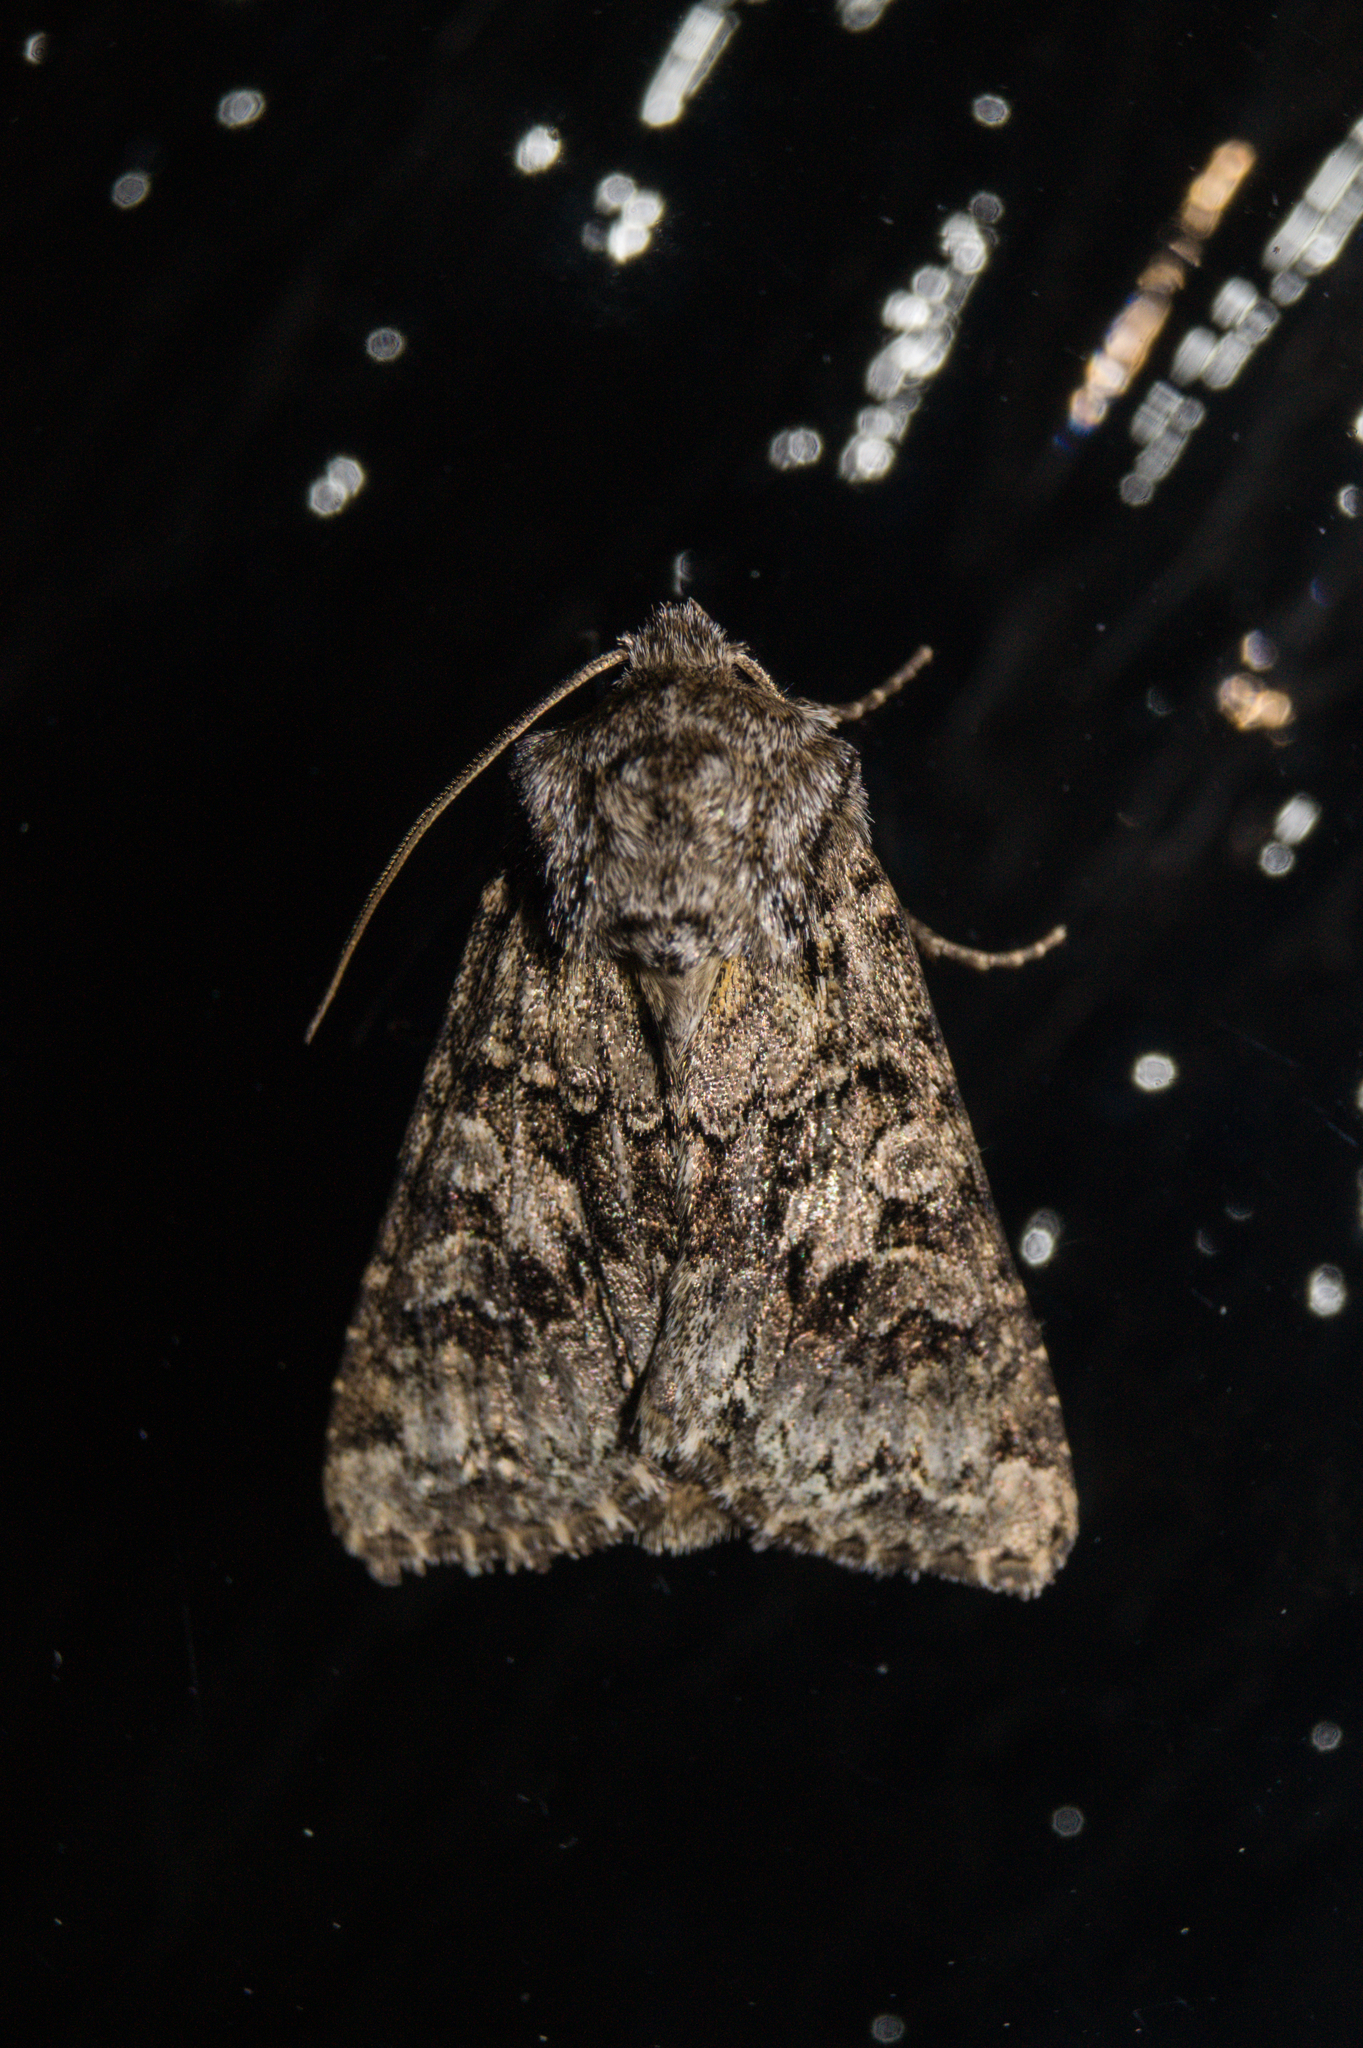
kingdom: Animalia
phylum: Arthropoda
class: Insecta
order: Lepidoptera
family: Noctuidae
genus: Hada
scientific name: Hada plebeja
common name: Shears
